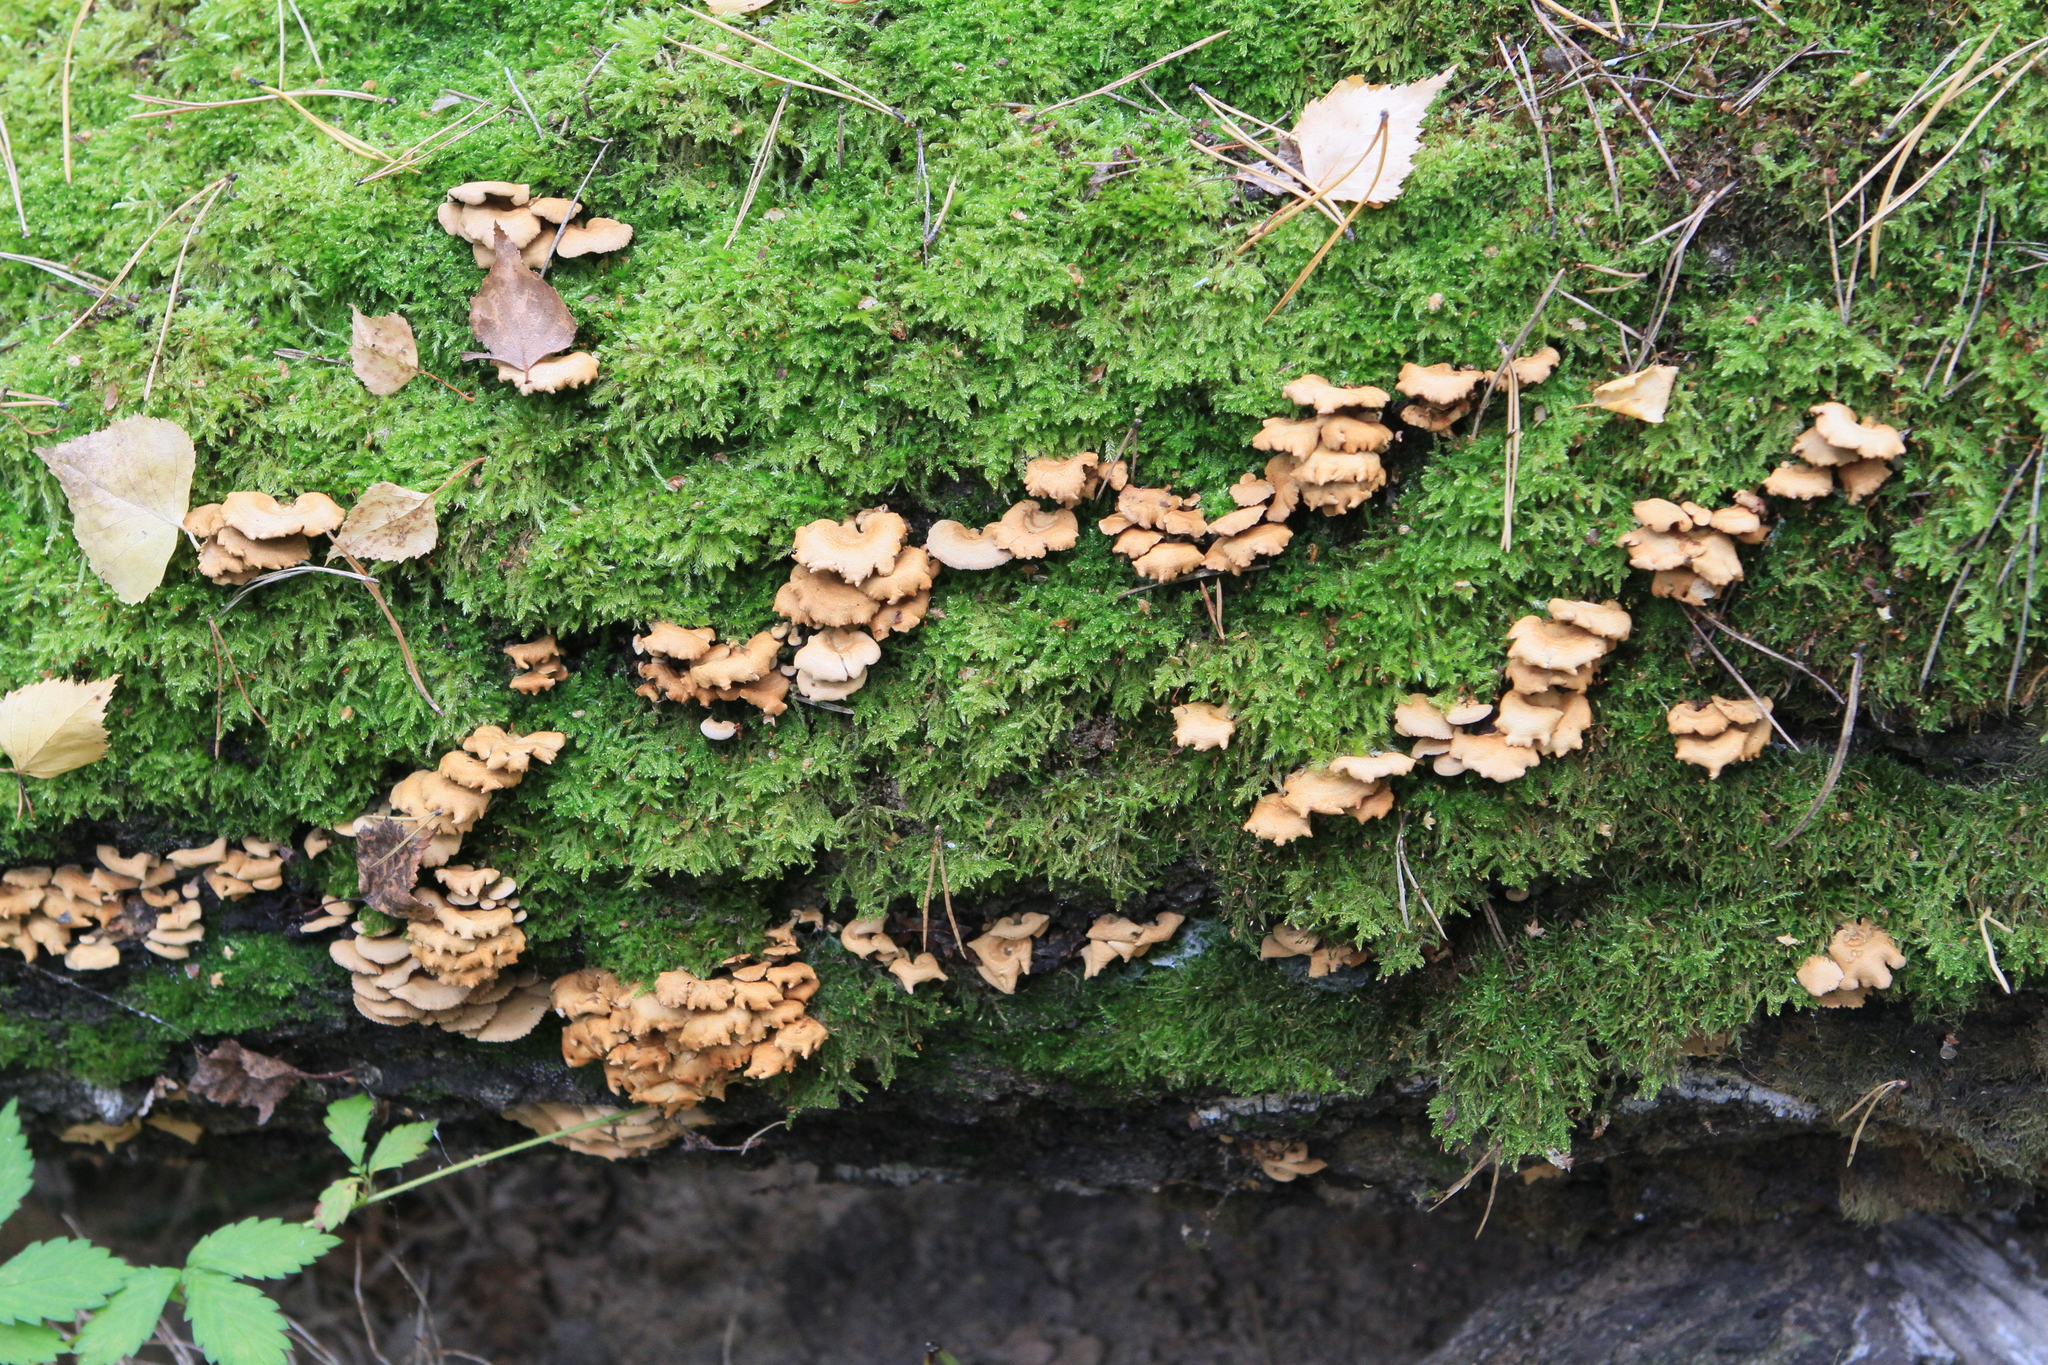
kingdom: Fungi
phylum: Basidiomycota
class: Agaricomycetes
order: Agaricales
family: Mycenaceae
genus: Panellus
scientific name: Panellus stipticus
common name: Bitter oysterling
